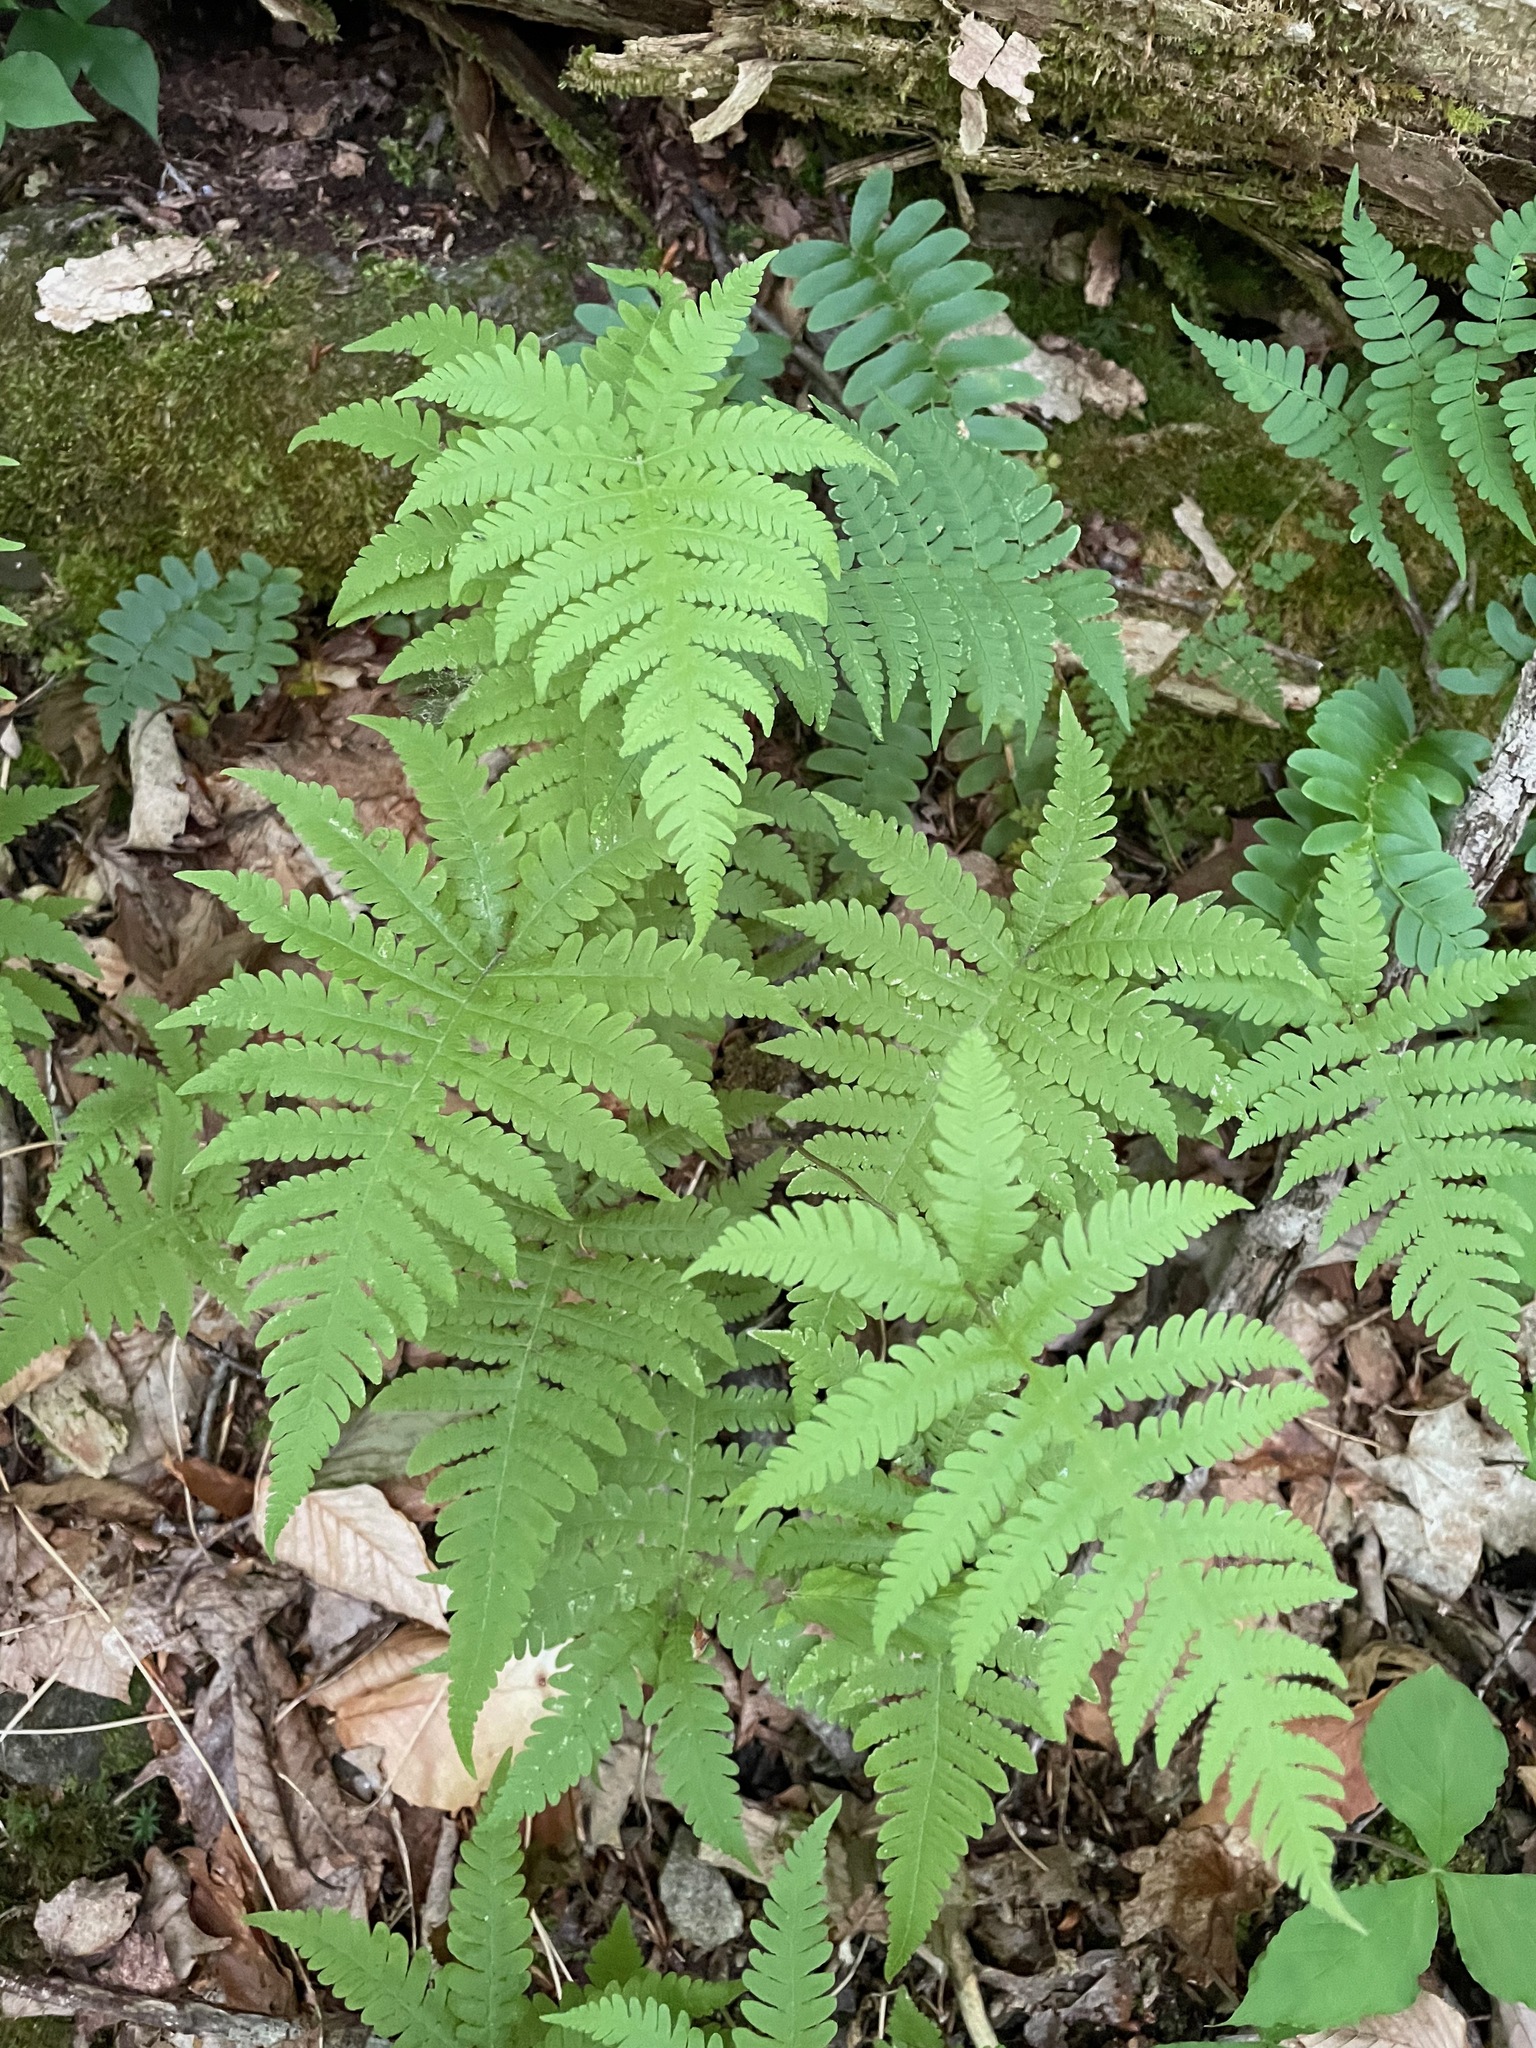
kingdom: Plantae
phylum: Tracheophyta
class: Polypodiopsida
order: Polypodiales
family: Thelypteridaceae
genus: Phegopteris
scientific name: Phegopteris connectilis
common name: Beech fern
